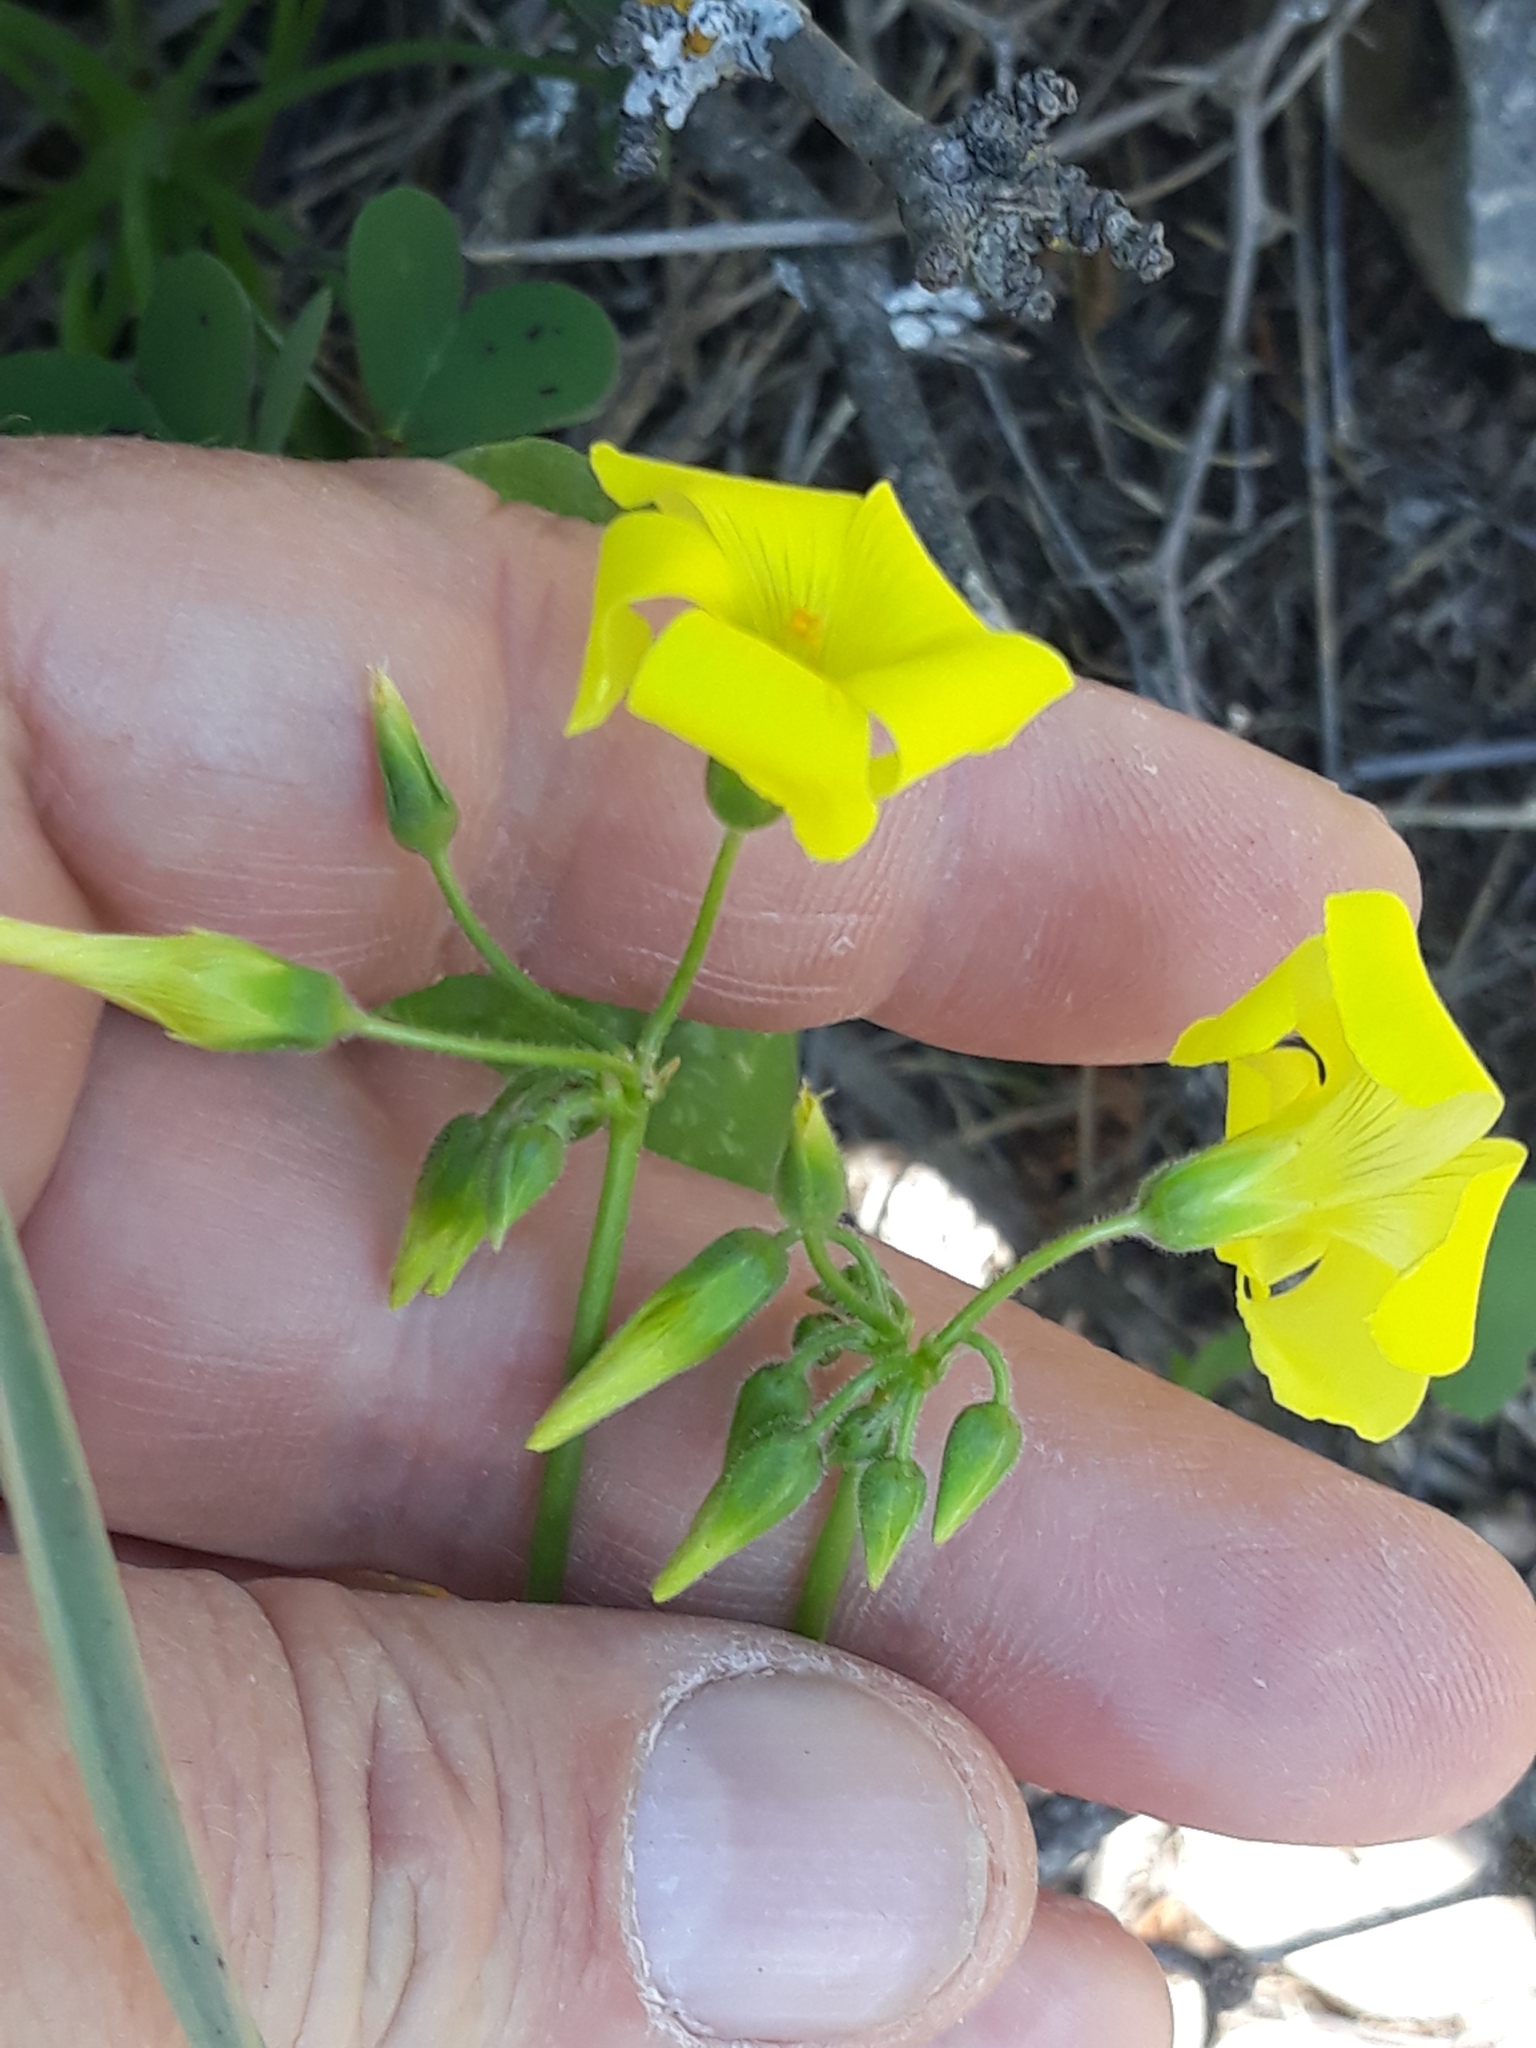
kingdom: Plantae
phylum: Tracheophyta
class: Magnoliopsida
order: Oxalidales
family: Oxalidaceae
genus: Oxalis
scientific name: Oxalis pes-caprae
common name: Bermuda-buttercup
